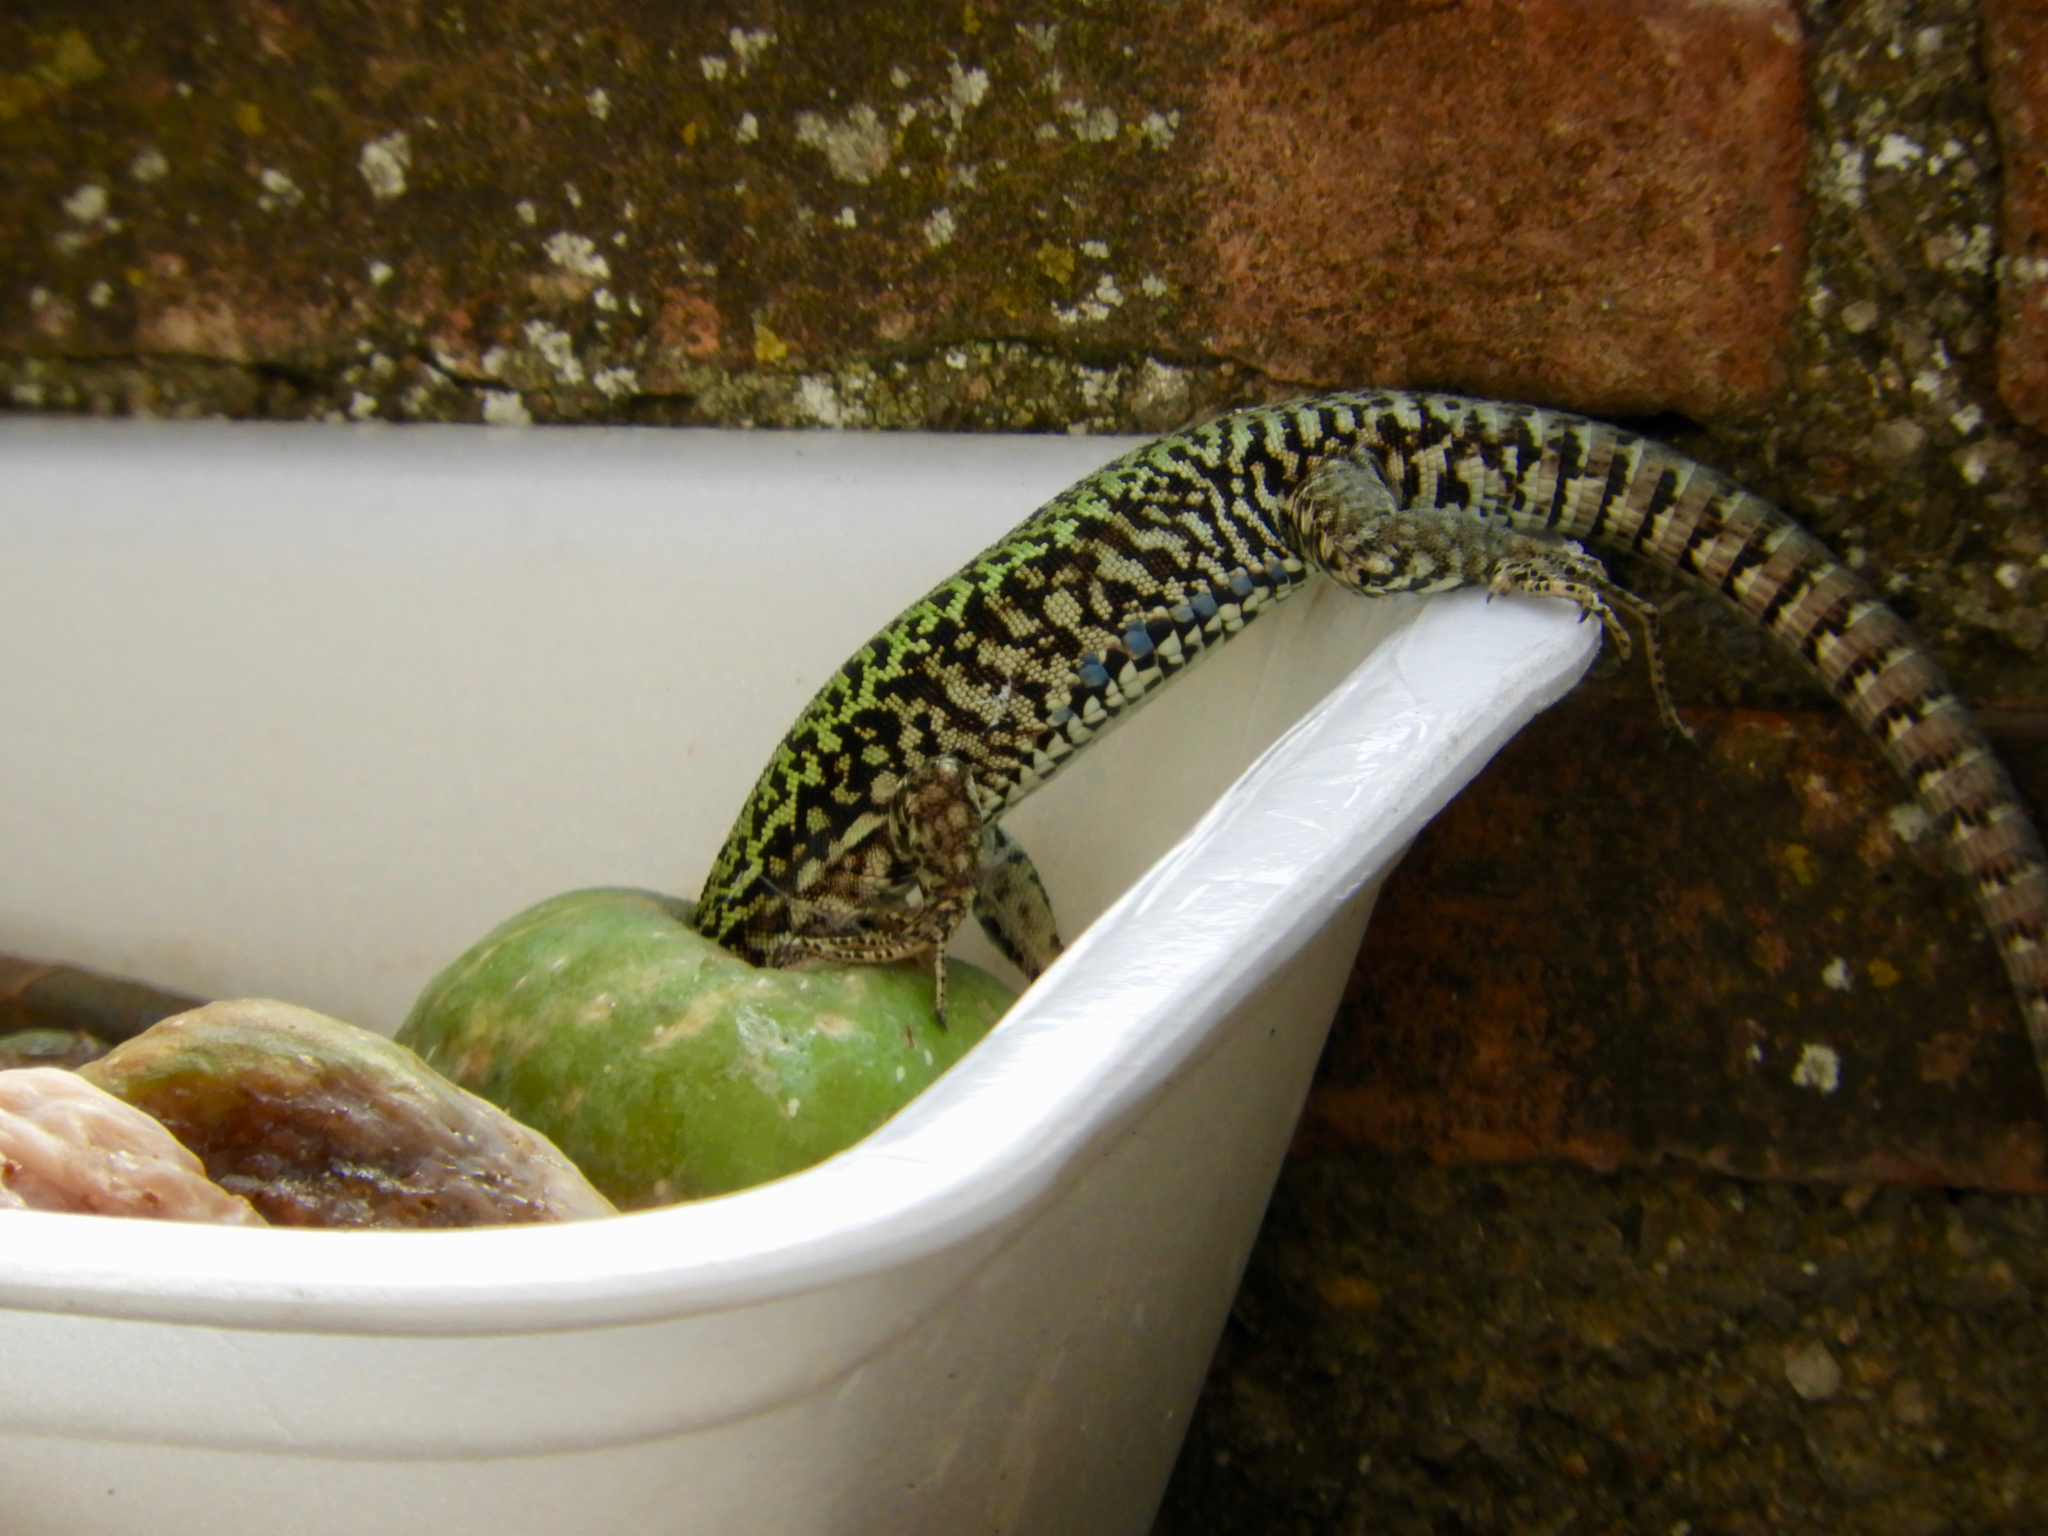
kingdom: Animalia
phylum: Chordata
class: Squamata
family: Lacertidae
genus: Podarcis
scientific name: Podarcis muralis
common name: Common wall lizard
